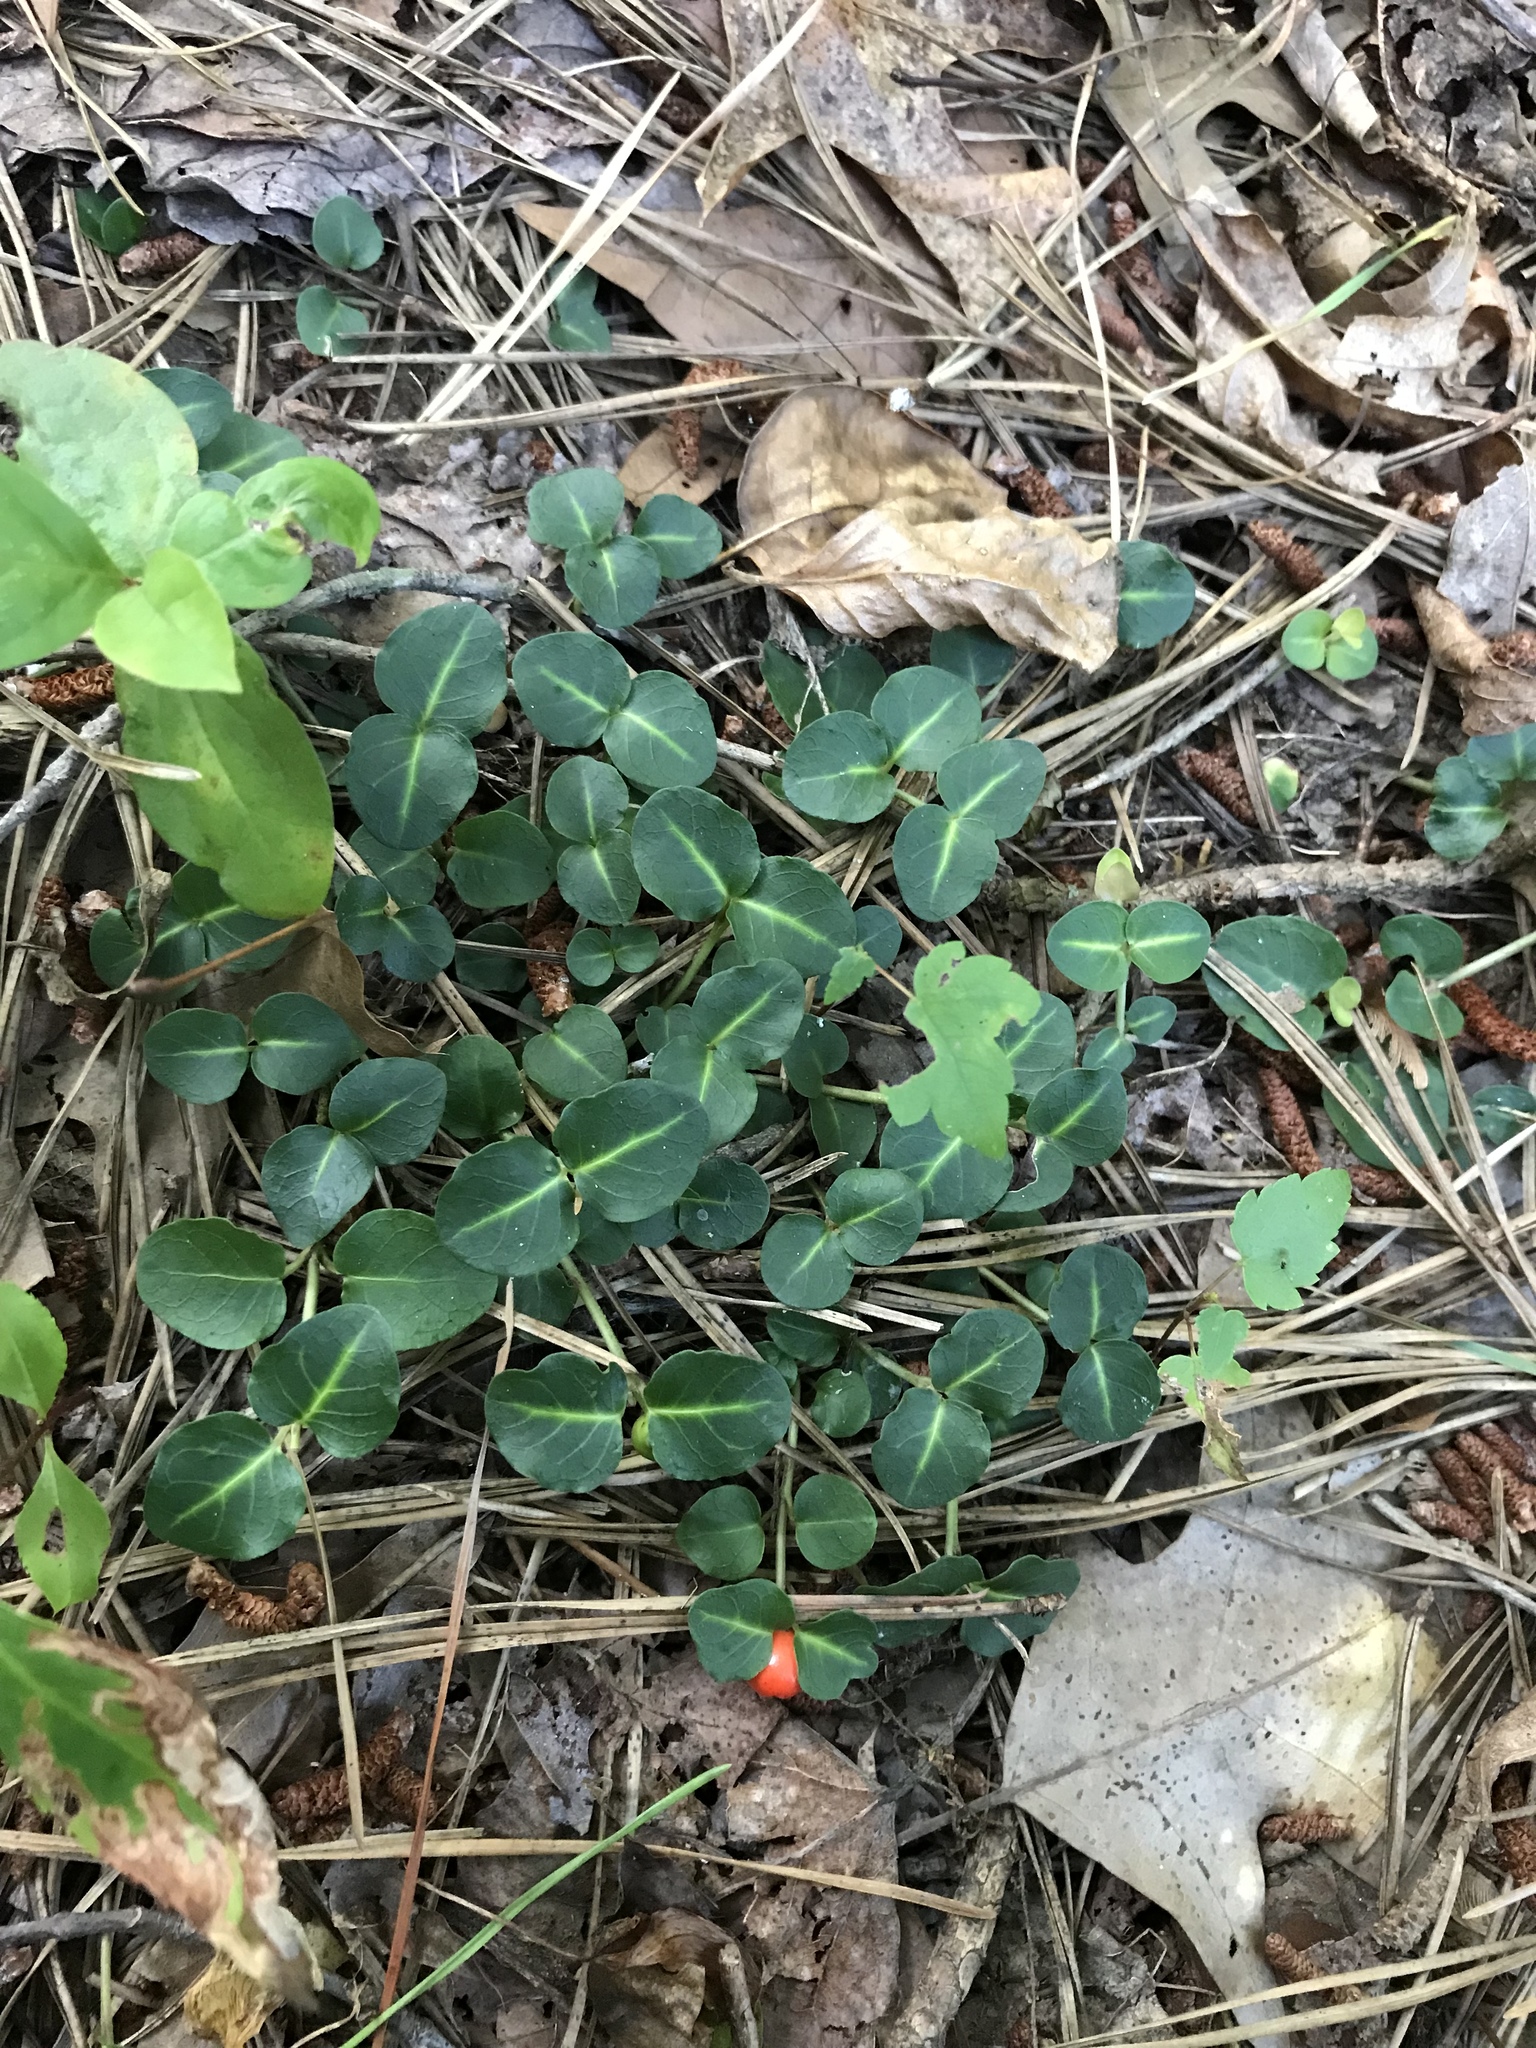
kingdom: Plantae
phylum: Tracheophyta
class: Magnoliopsida
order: Gentianales
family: Rubiaceae
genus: Mitchella
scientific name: Mitchella repens
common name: Partridge-berry
